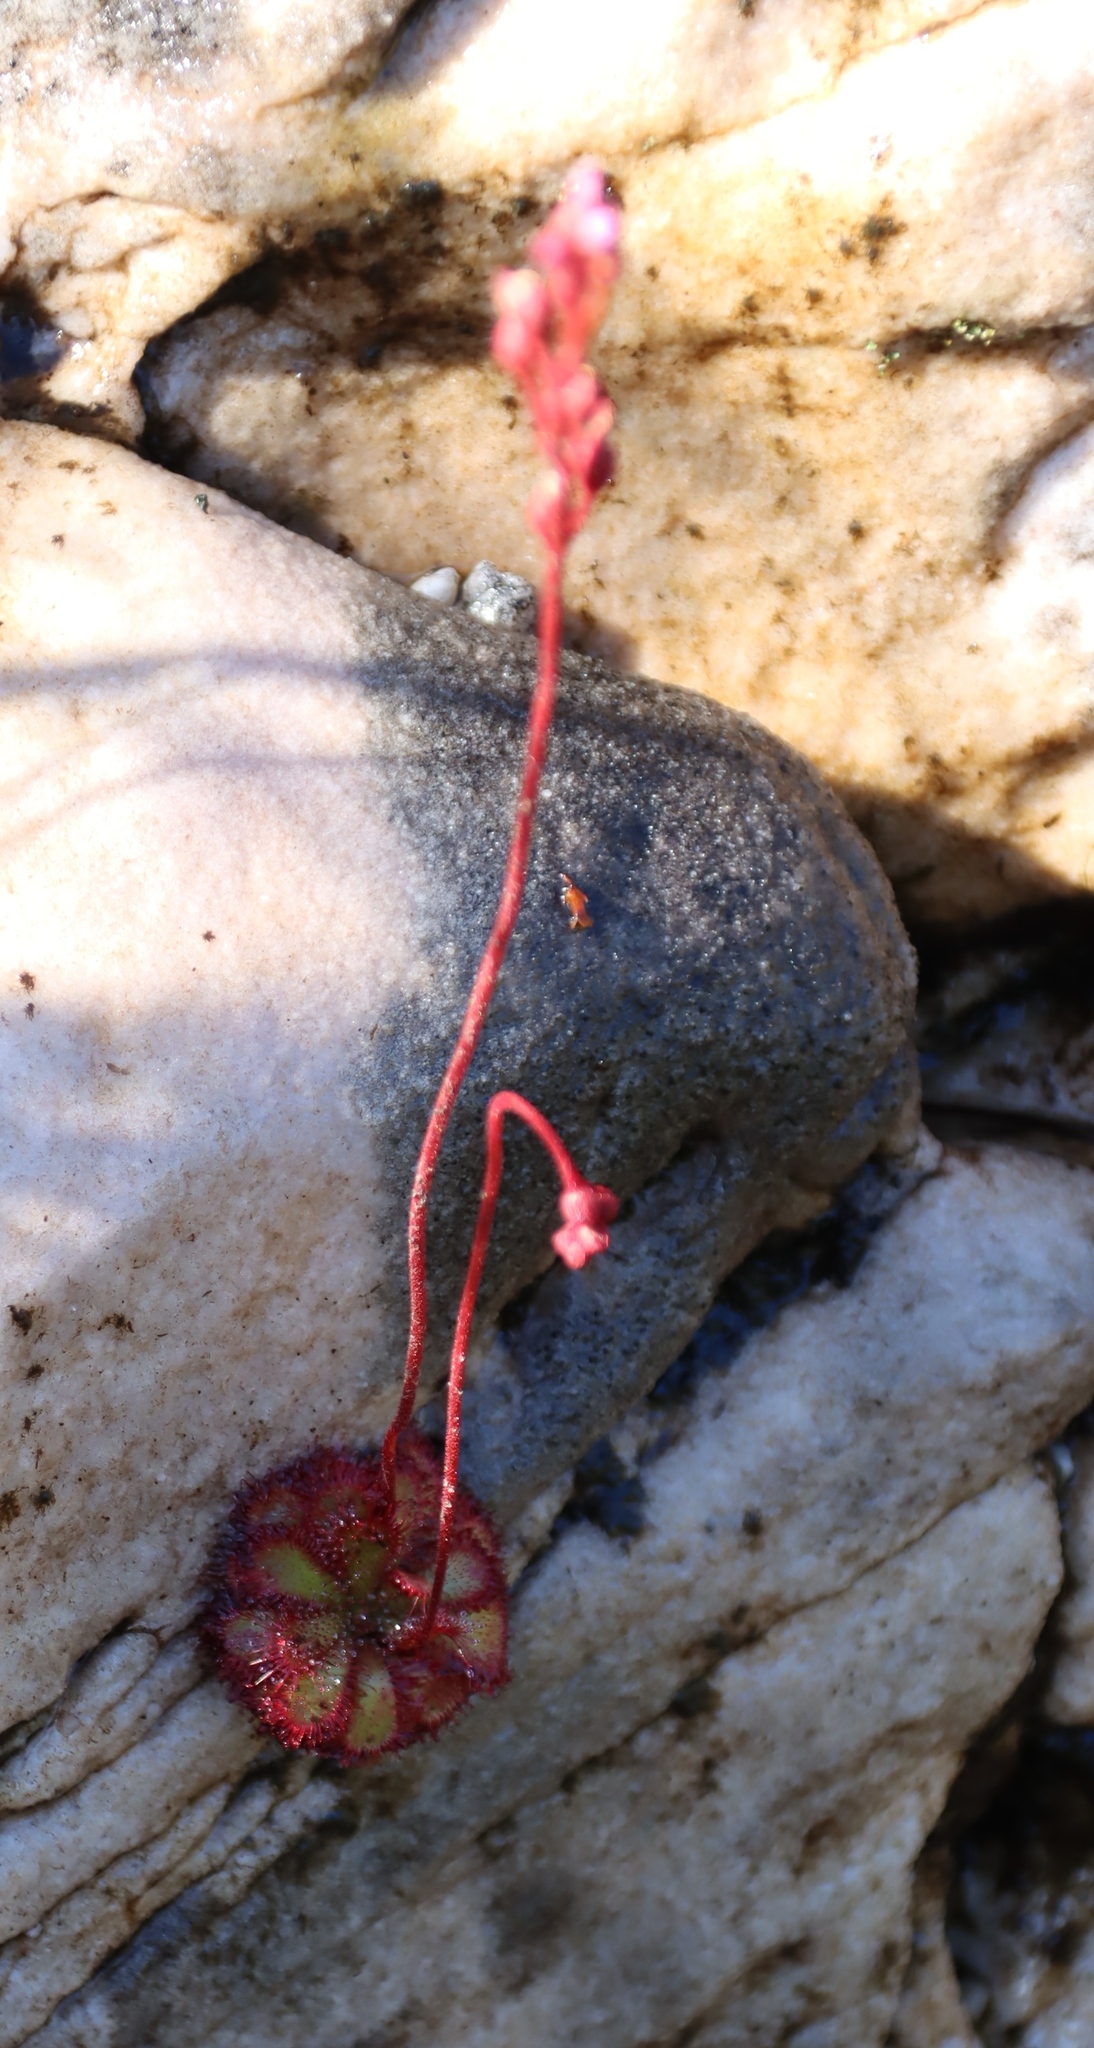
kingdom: Plantae
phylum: Tracheophyta
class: Magnoliopsida
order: Caryophyllales
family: Droseraceae
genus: Drosera
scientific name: Drosera cuneifolia
